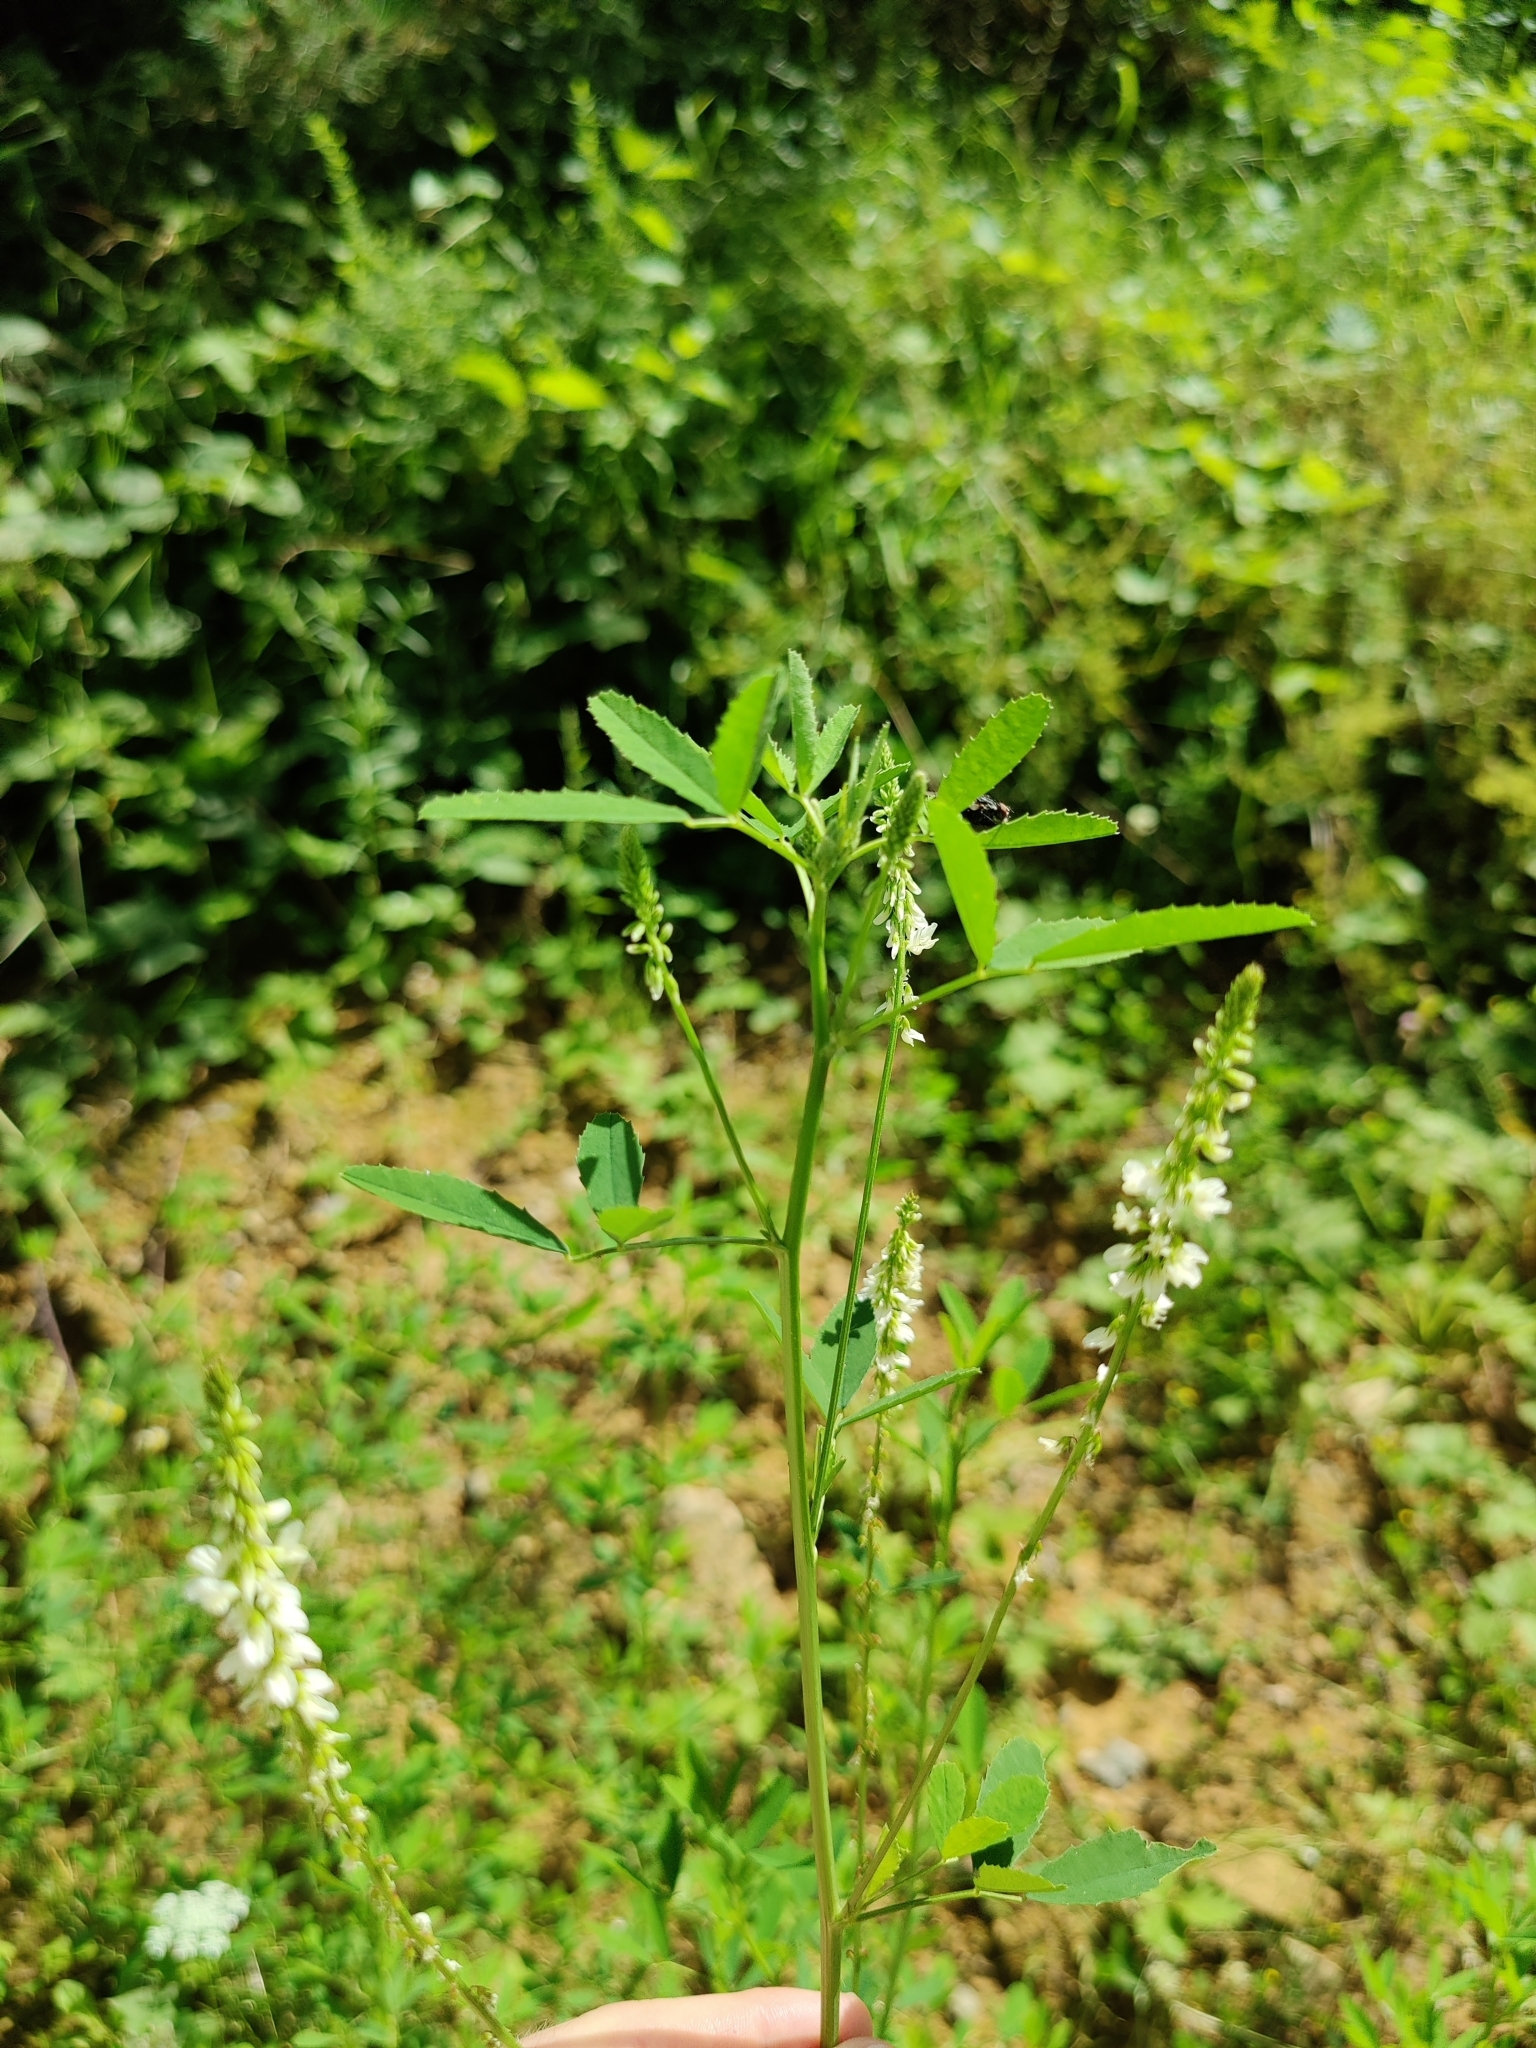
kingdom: Plantae
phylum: Tracheophyta
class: Magnoliopsida
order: Fabales
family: Fabaceae
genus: Melilotus
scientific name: Melilotus albus
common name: White melilot
